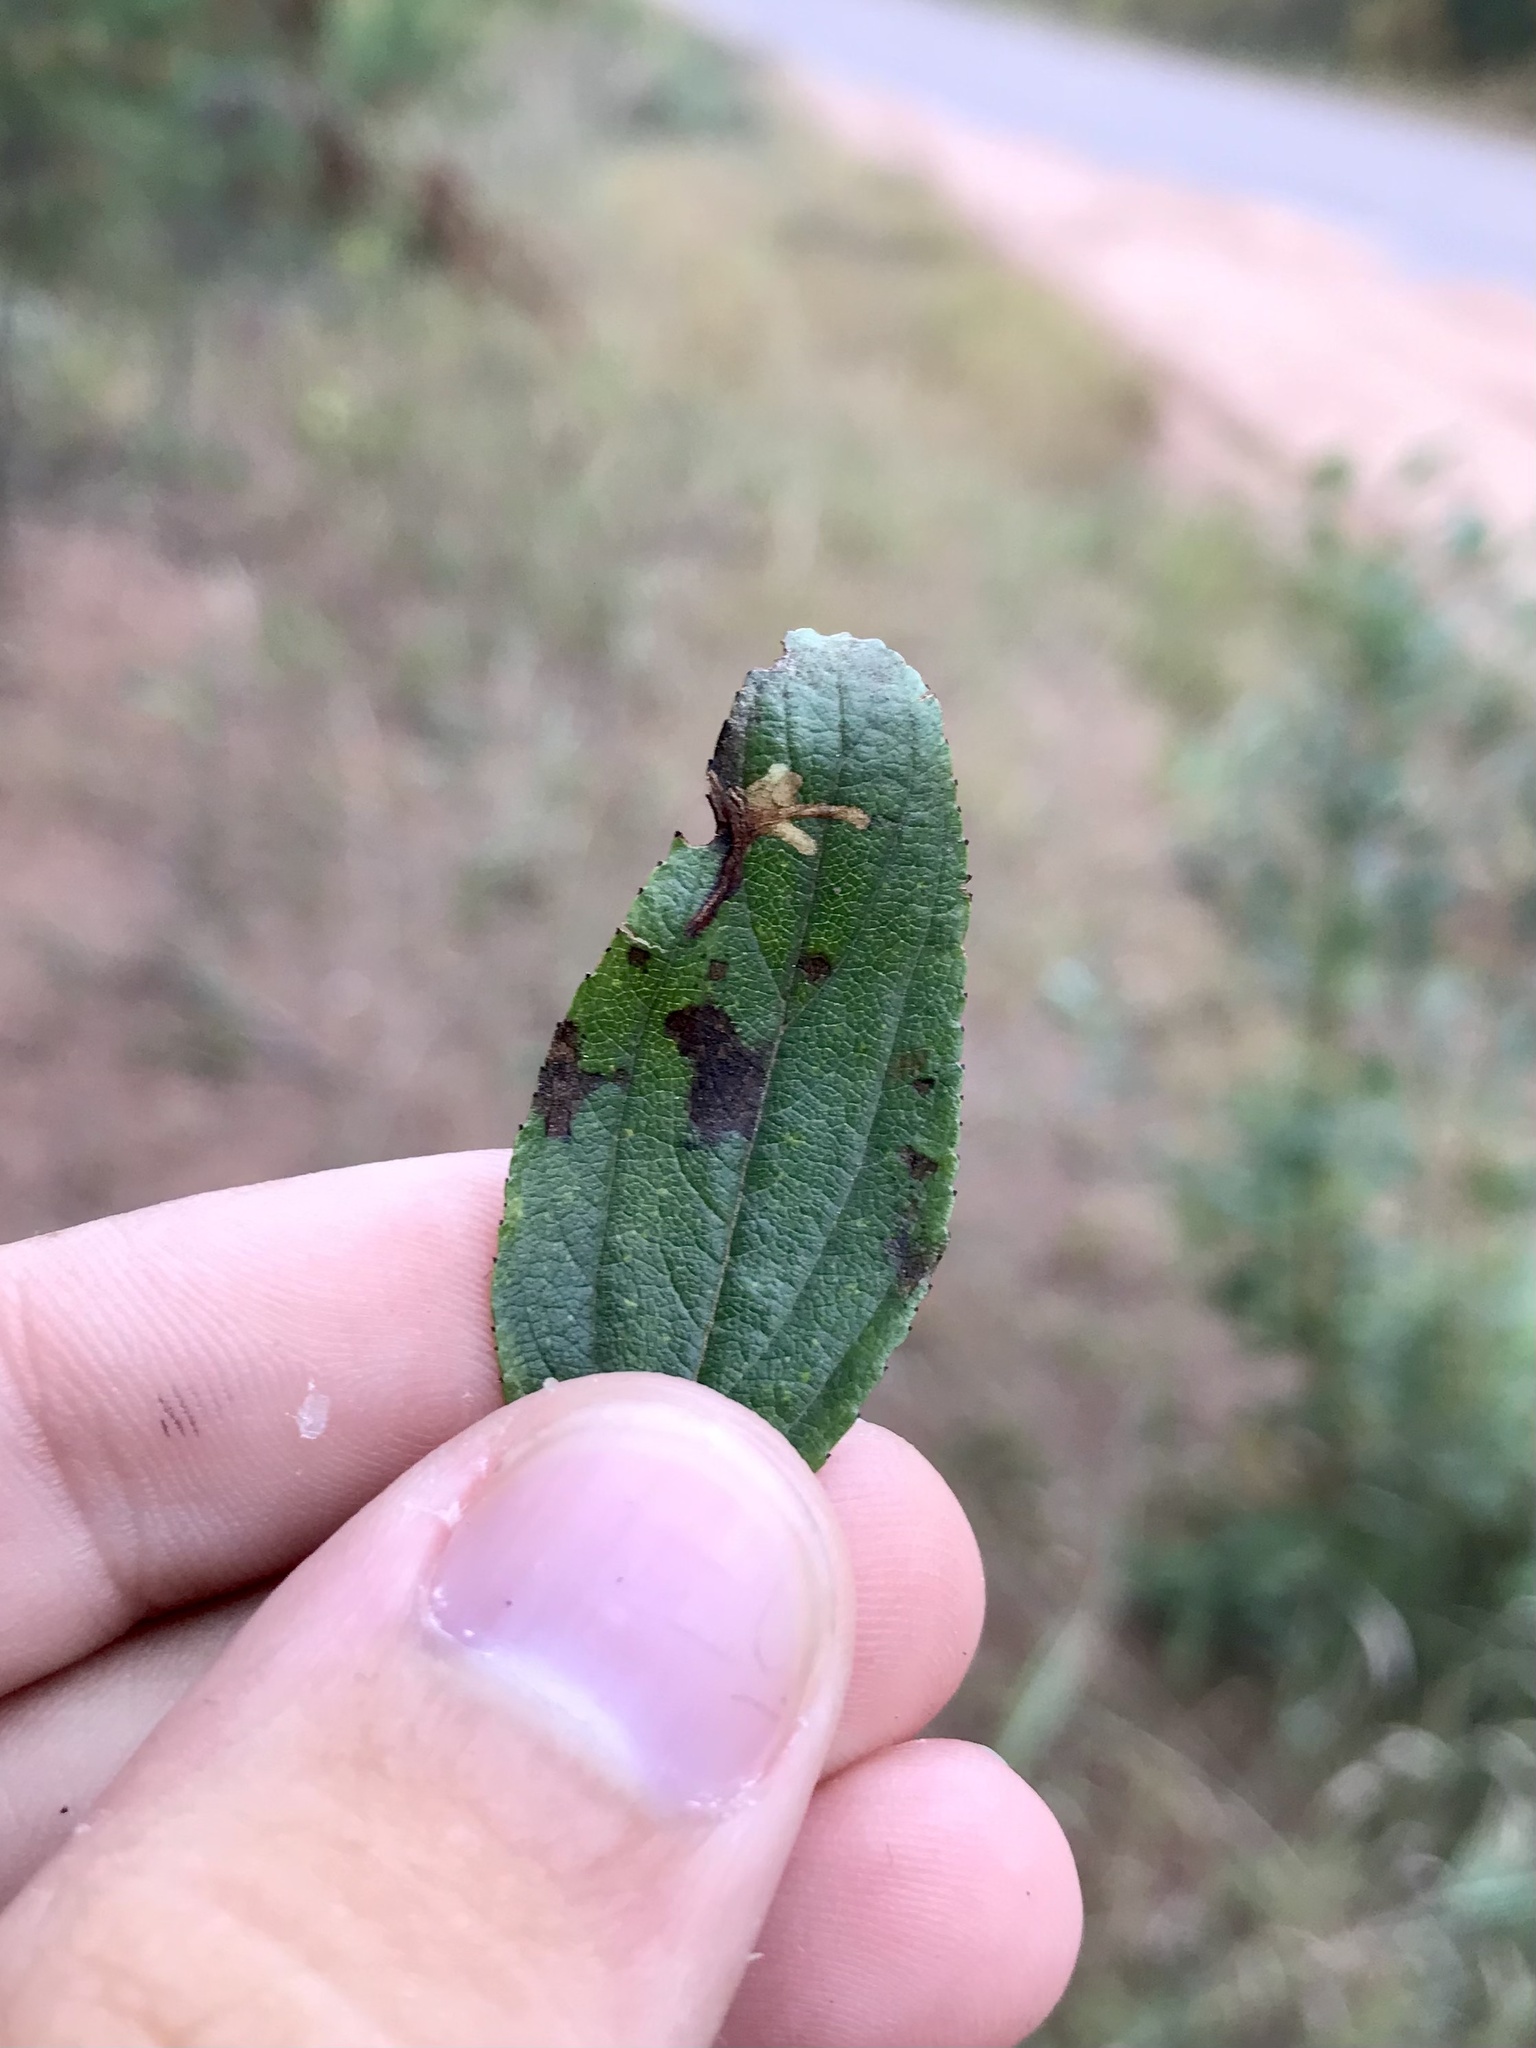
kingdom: Animalia
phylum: Arthropoda
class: Insecta
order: Lepidoptera
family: Gelechiidae
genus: Recurvaria
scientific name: Recurvaria consimilis
